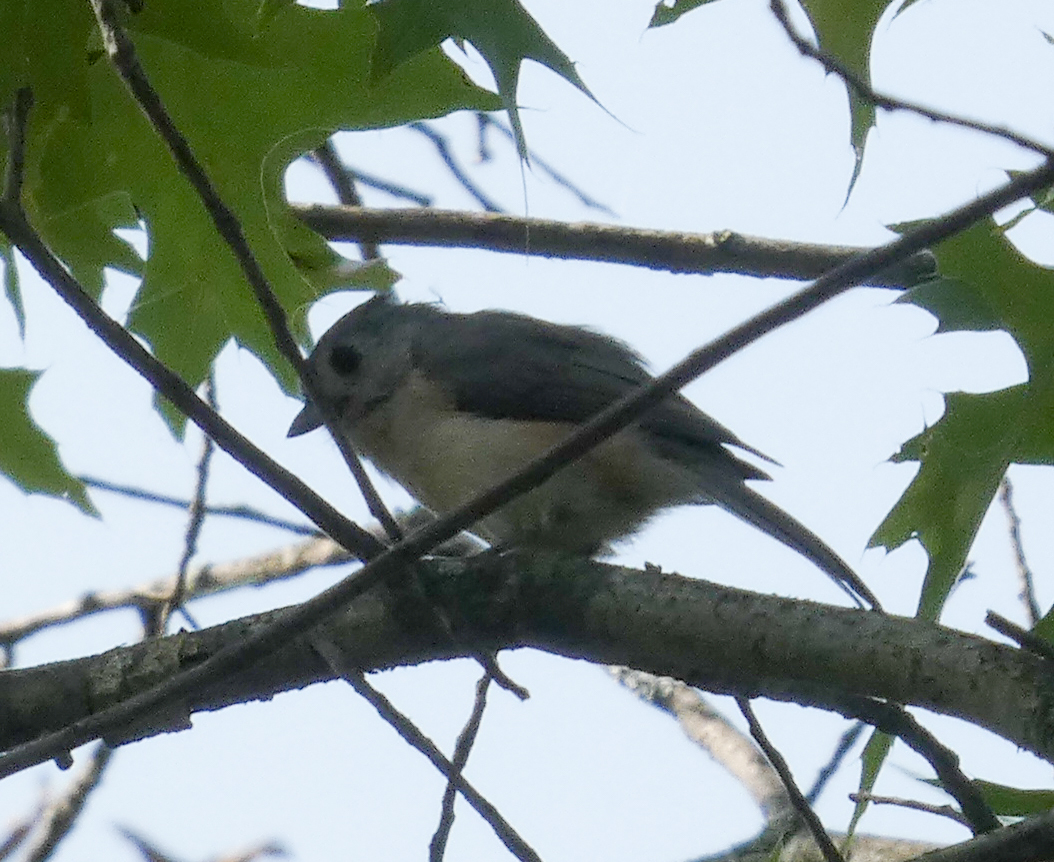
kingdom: Animalia
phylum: Chordata
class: Aves
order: Passeriformes
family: Paridae
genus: Baeolophus
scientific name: Baeolophus bicolor
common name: Tufted titmouse
